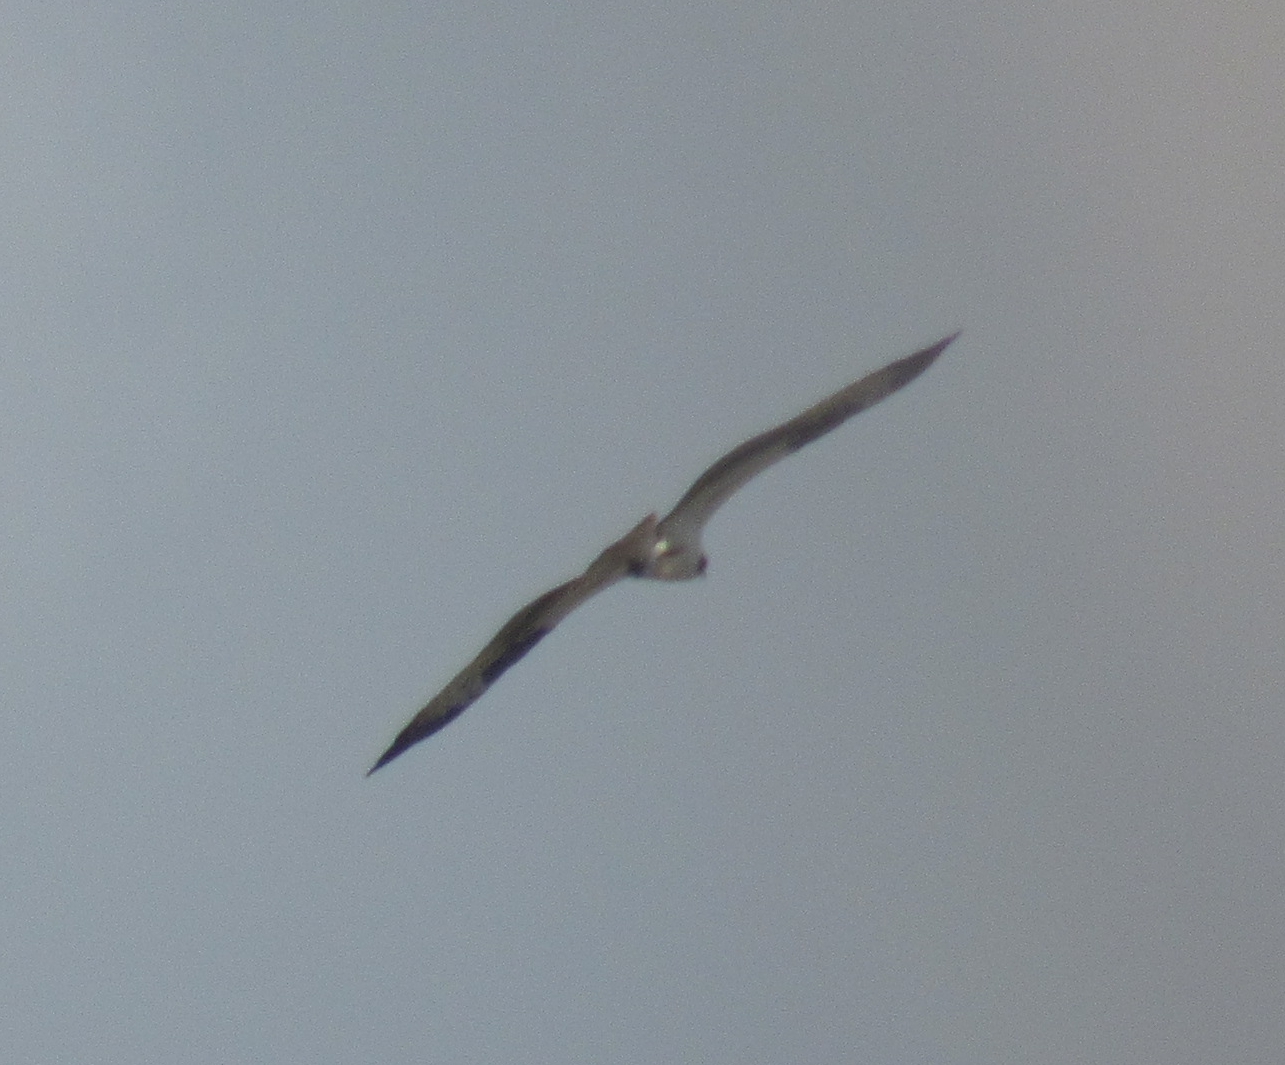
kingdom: Animalia
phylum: Chordata
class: Aves
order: Accipitriformes
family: Pandionidae
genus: Pandion
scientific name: Pandion haliaetus
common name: Osprey
